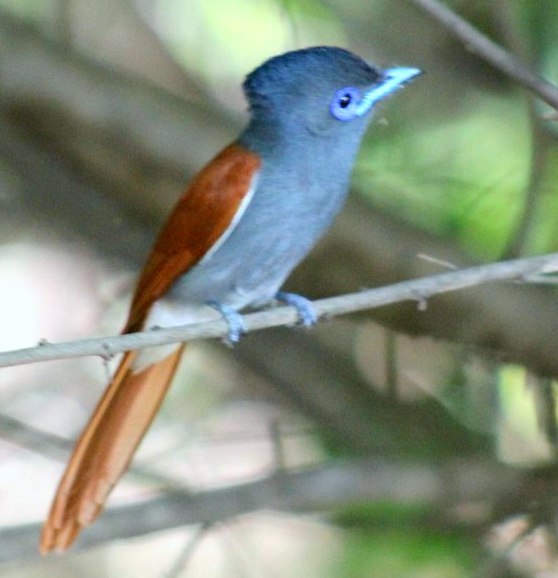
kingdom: Animalia
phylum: Chordata
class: Aves
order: Passeriformes
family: Monarchidae
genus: Terpsiphone
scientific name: Terpsiphone viridis
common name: African paradise flycatcher
